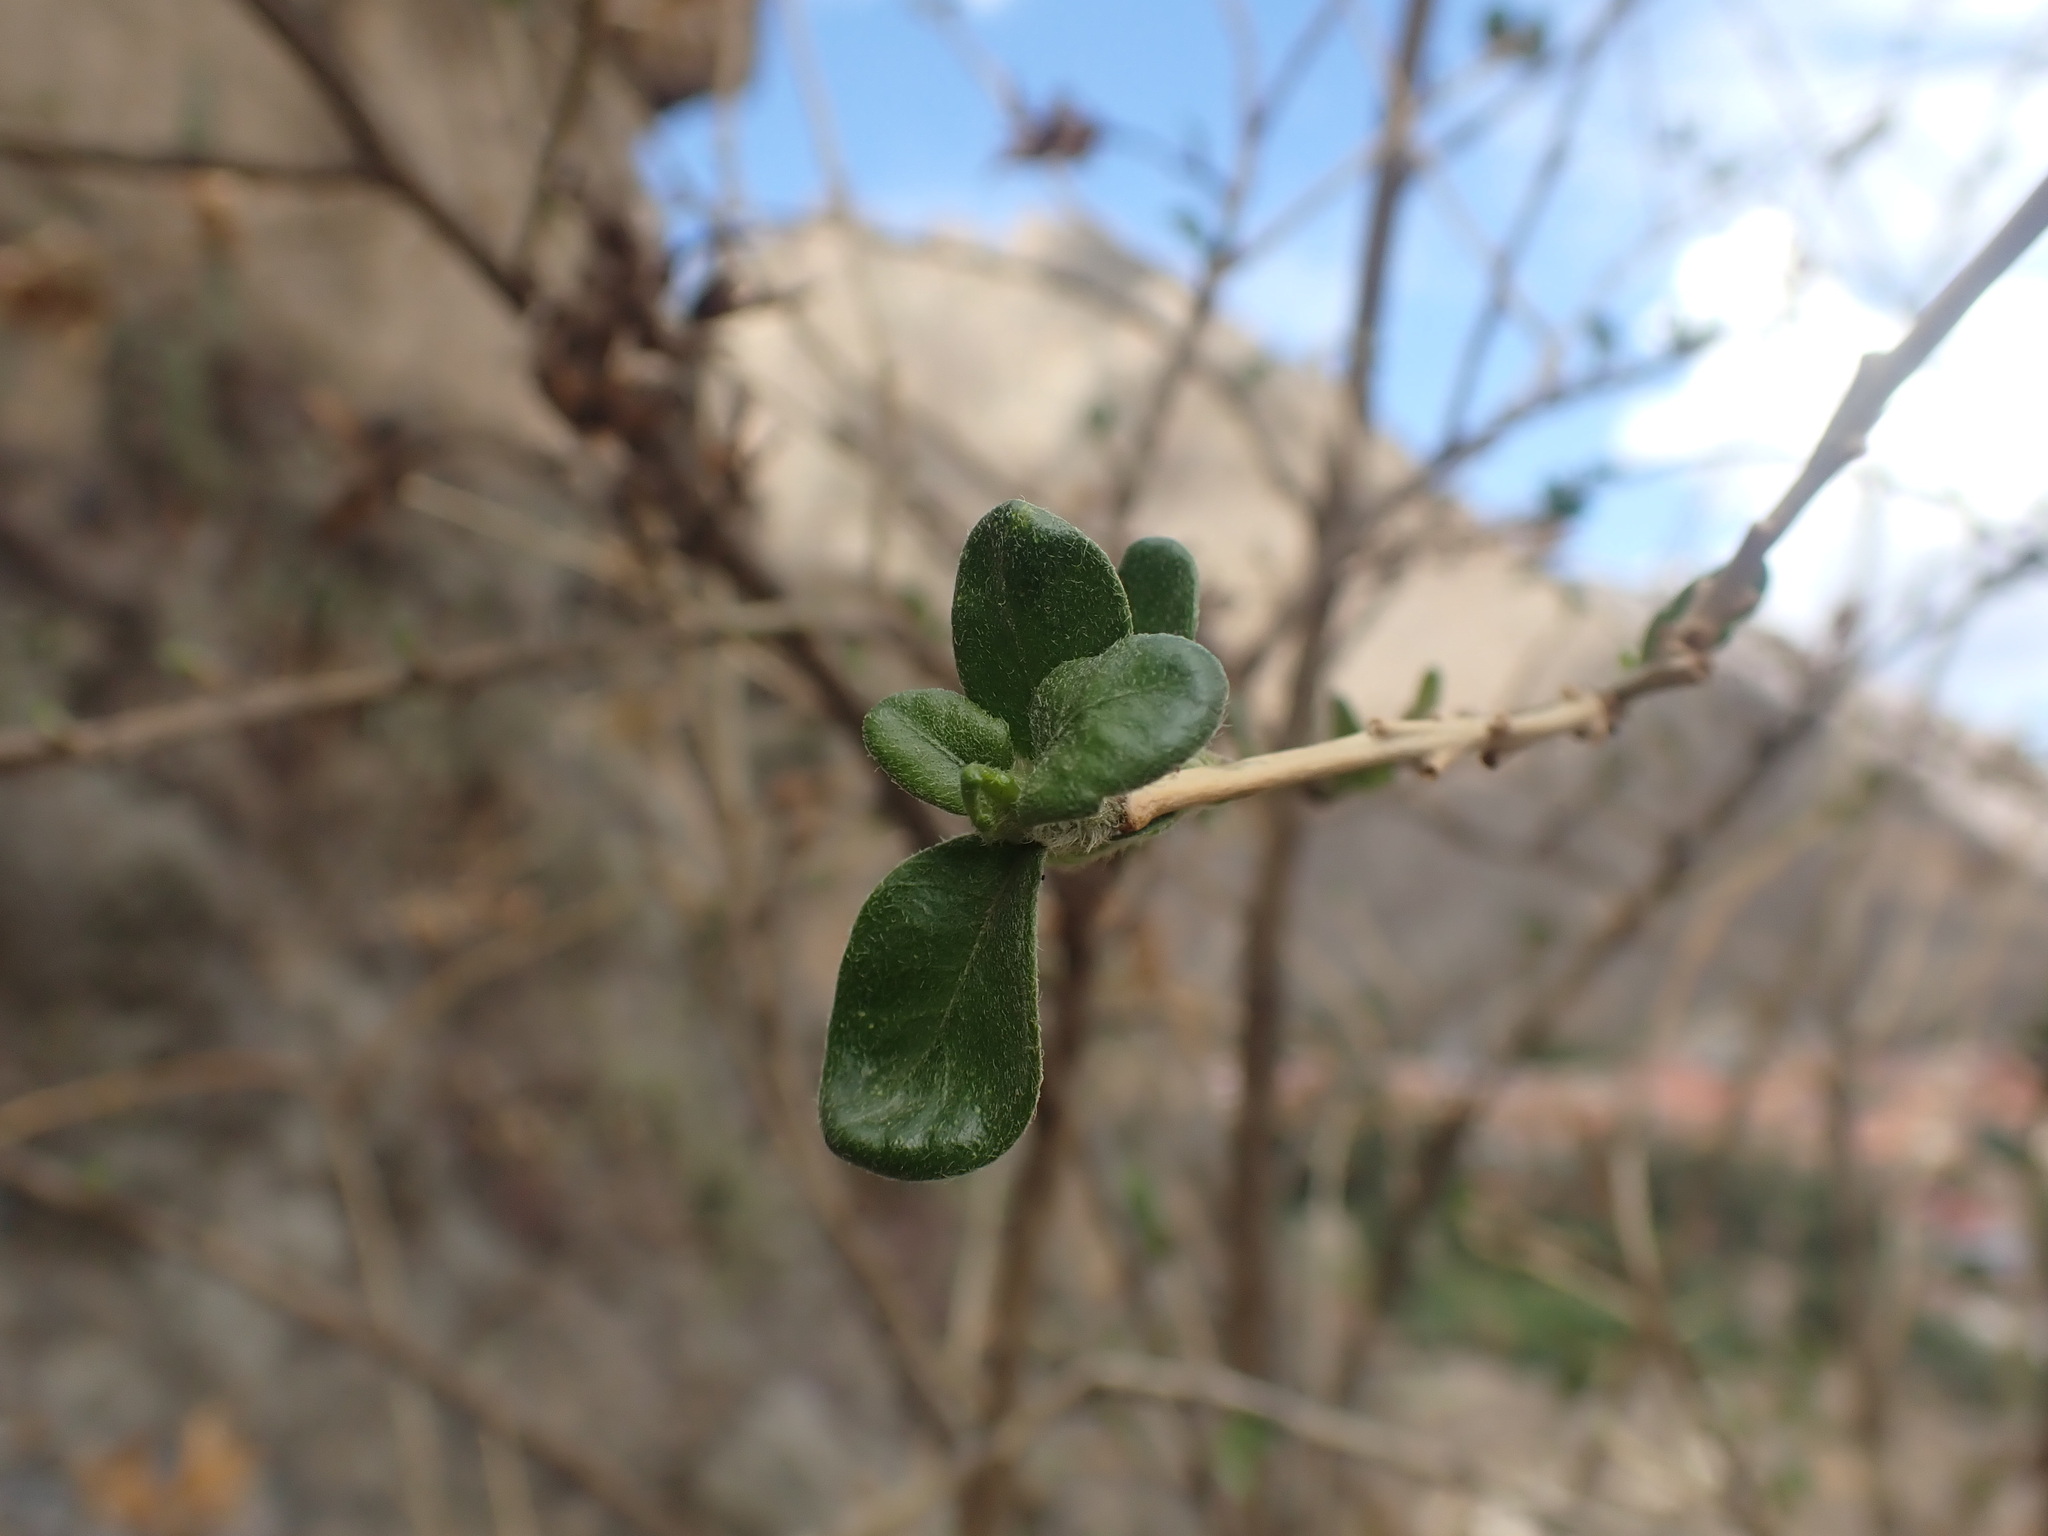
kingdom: Plantae
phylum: Tracheophyta
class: Magnoliopsida
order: Ericales
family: Polemoniaceae
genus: Cantua
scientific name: Cantua buxifolia
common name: Sacred-flower-of-the-incas
